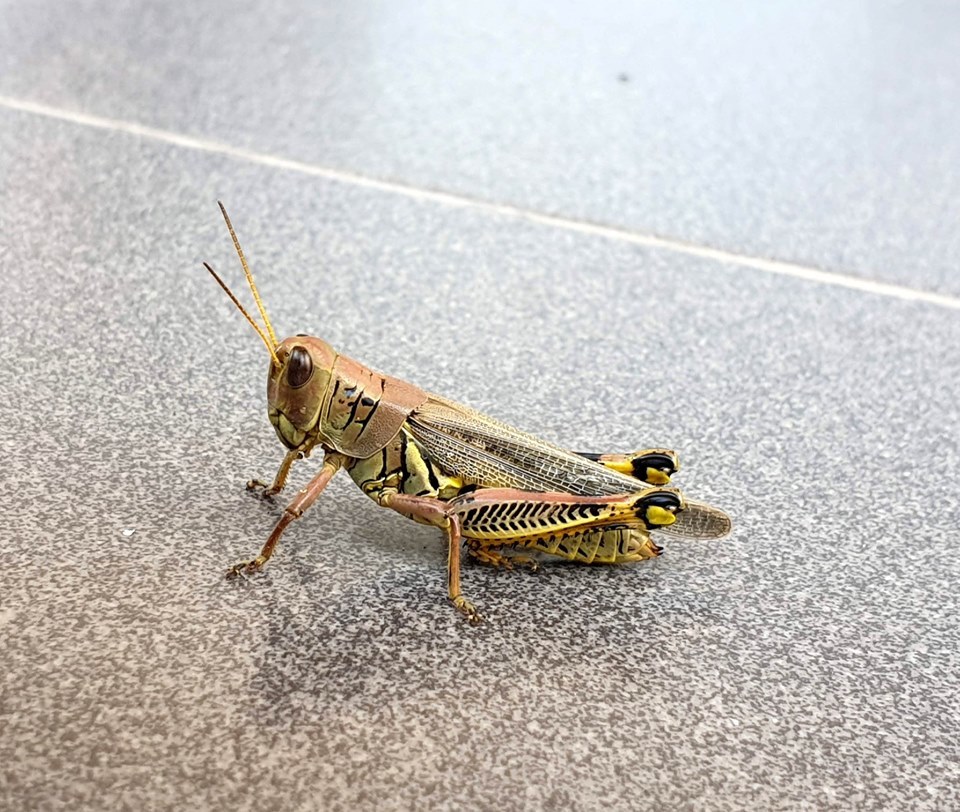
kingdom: Animalia
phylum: Arthropoda
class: Insecta
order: Orthoptera
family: Acrididae
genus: Melanoplus
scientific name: Melanoplus differentialis
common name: Differential grasshopper
